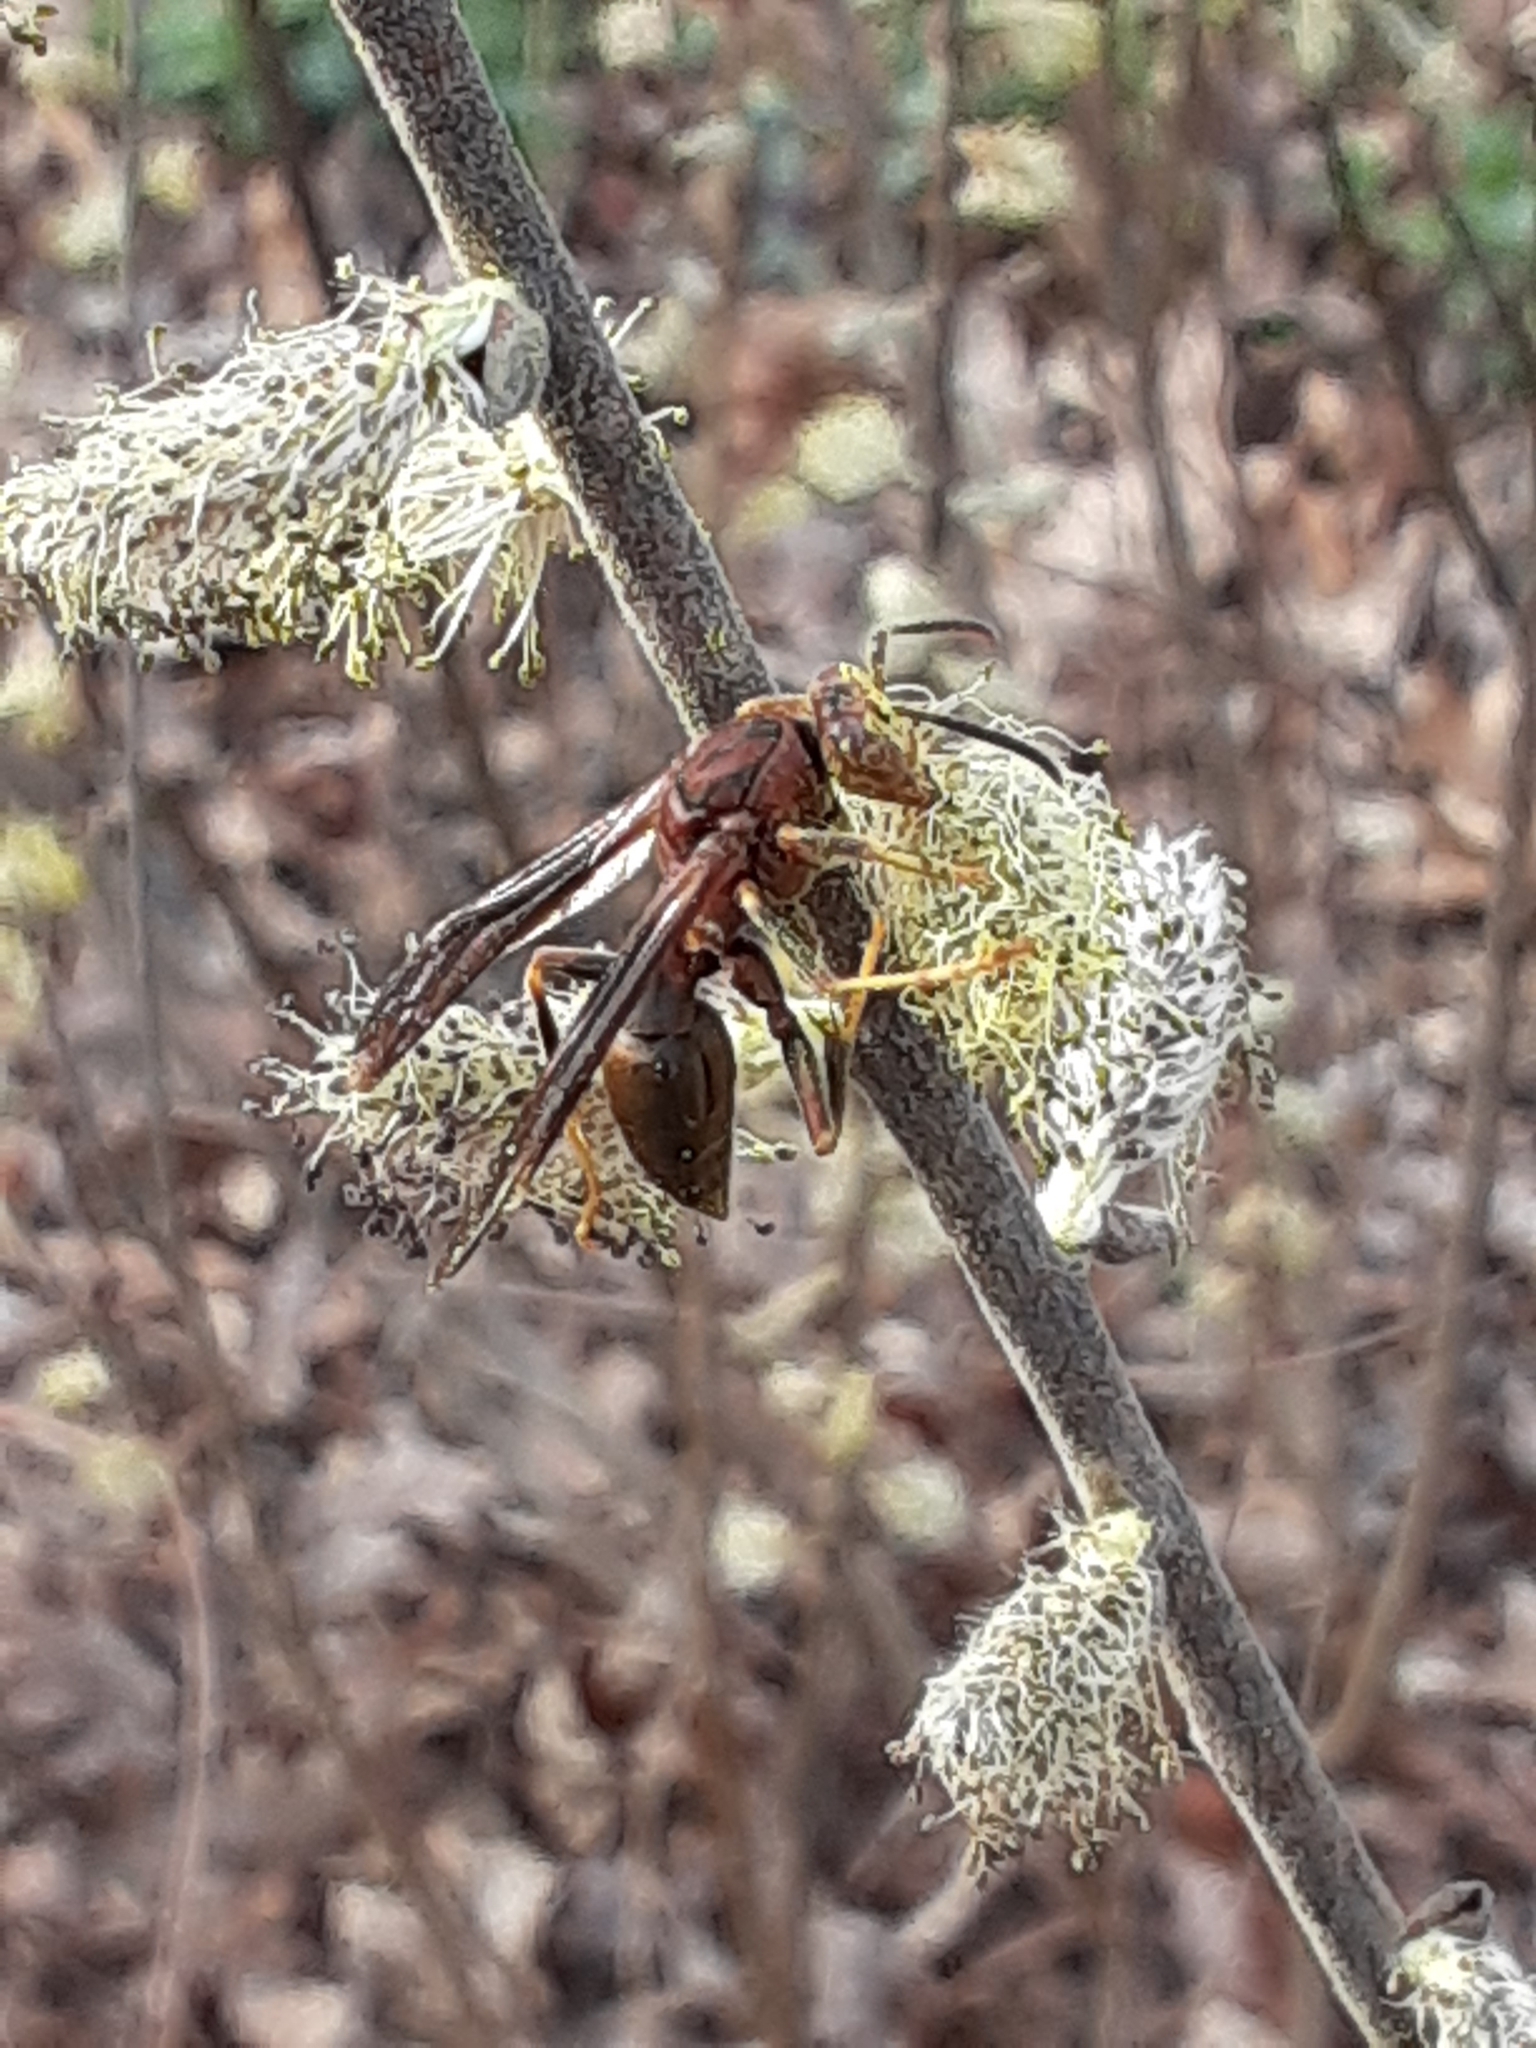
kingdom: Animalia
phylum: Arthropoda
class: Insecta
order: Hymenoptera
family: Eumenidae
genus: Polistes
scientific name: Polistes metricus
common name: Metric paper wasp
